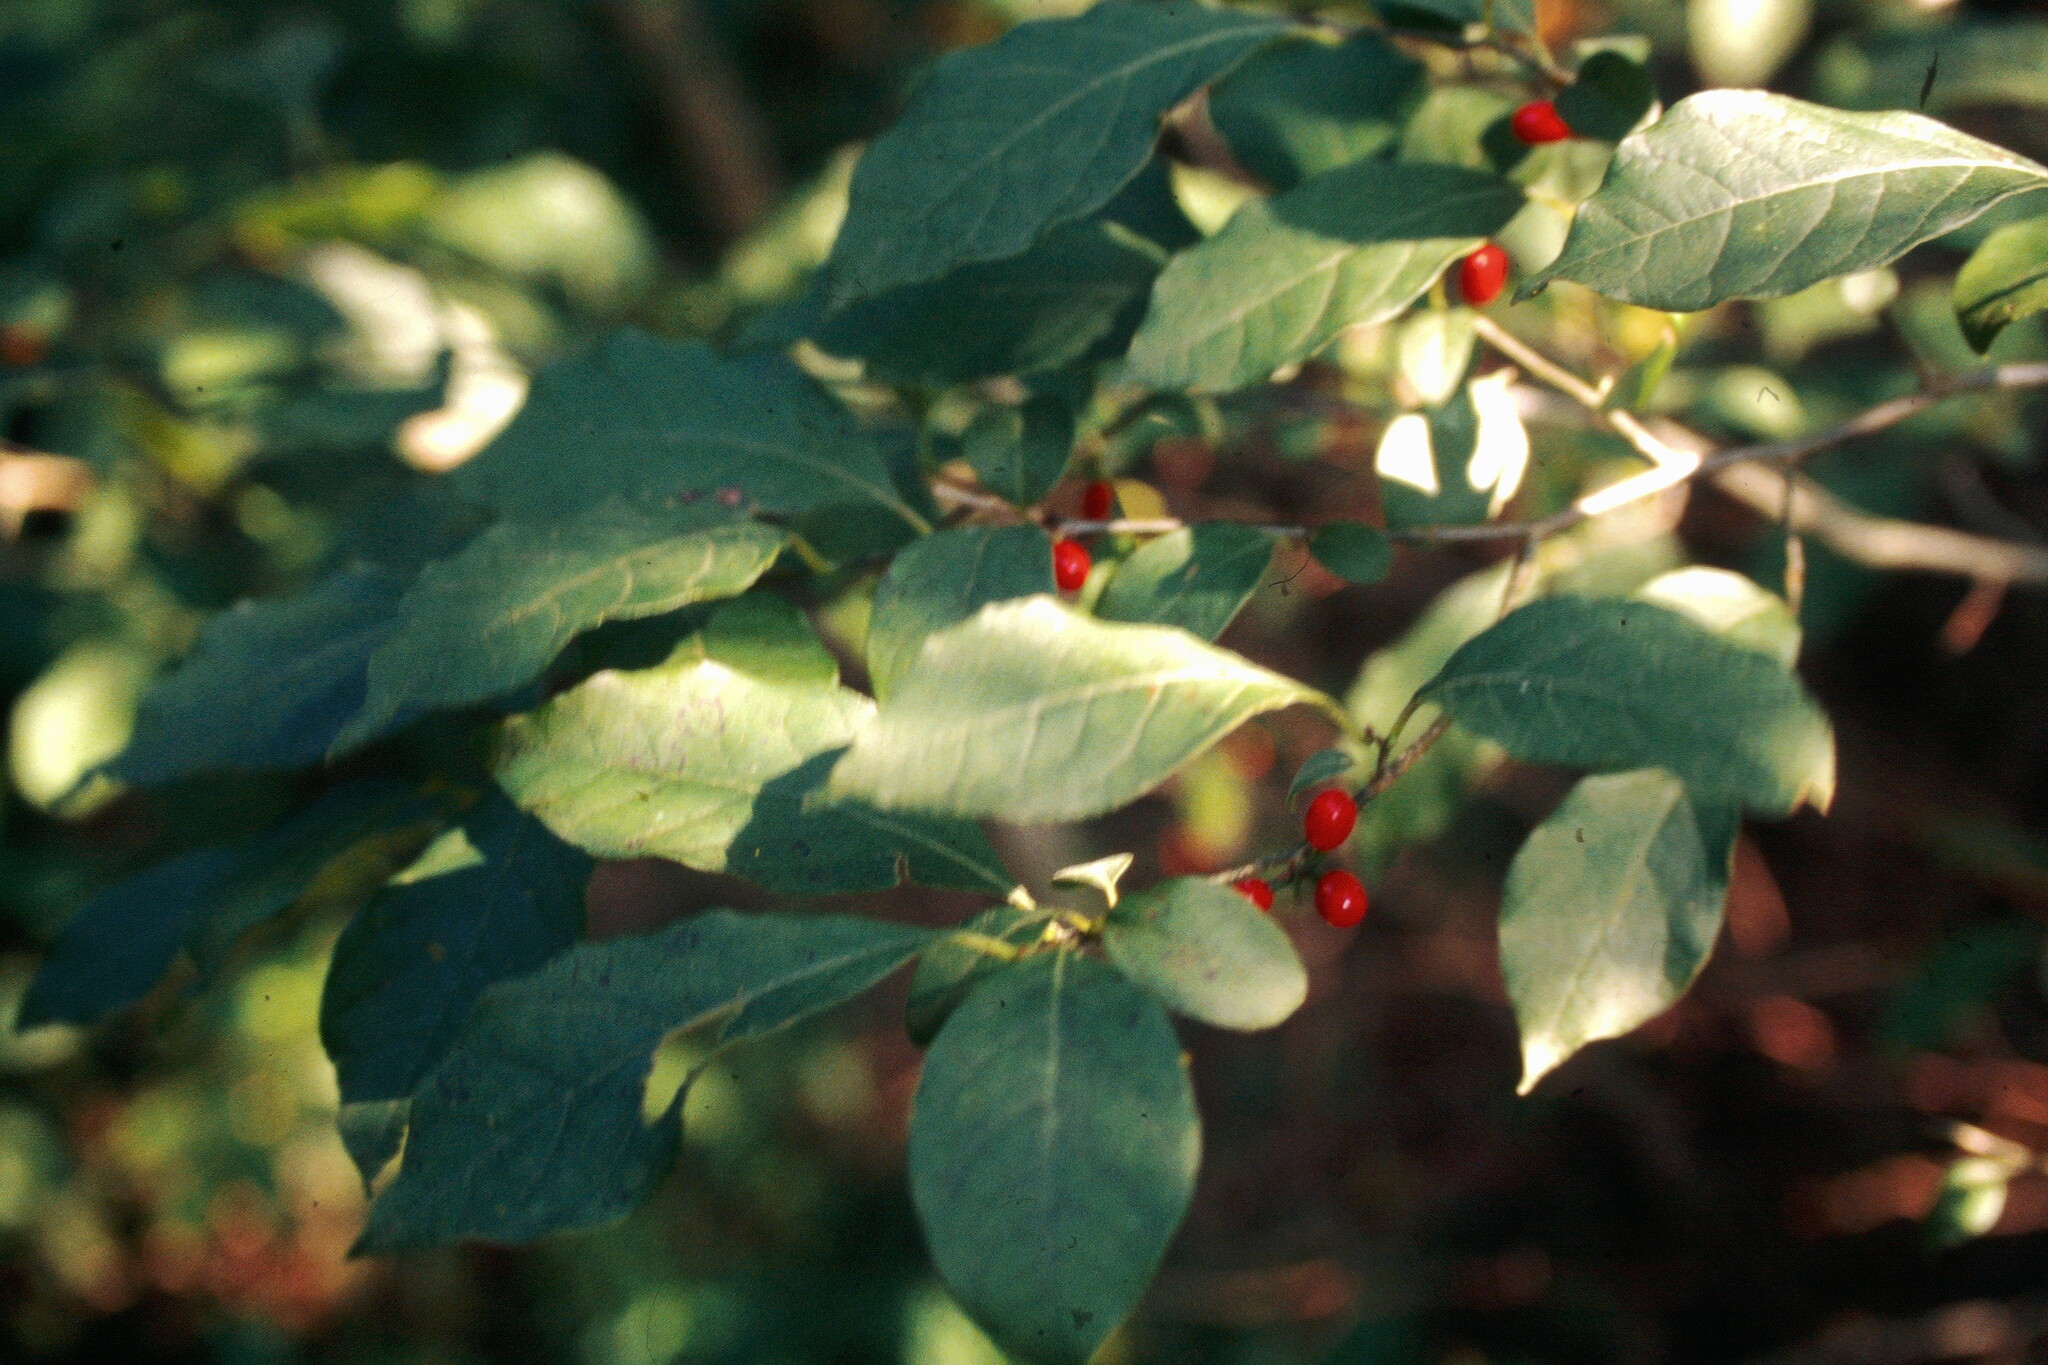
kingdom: Plantae
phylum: Tracheophyta
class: Magnoliopsida
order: Laurales
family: Lauraceae
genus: Lindera
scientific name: Lindera benzoin
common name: Spicebush
